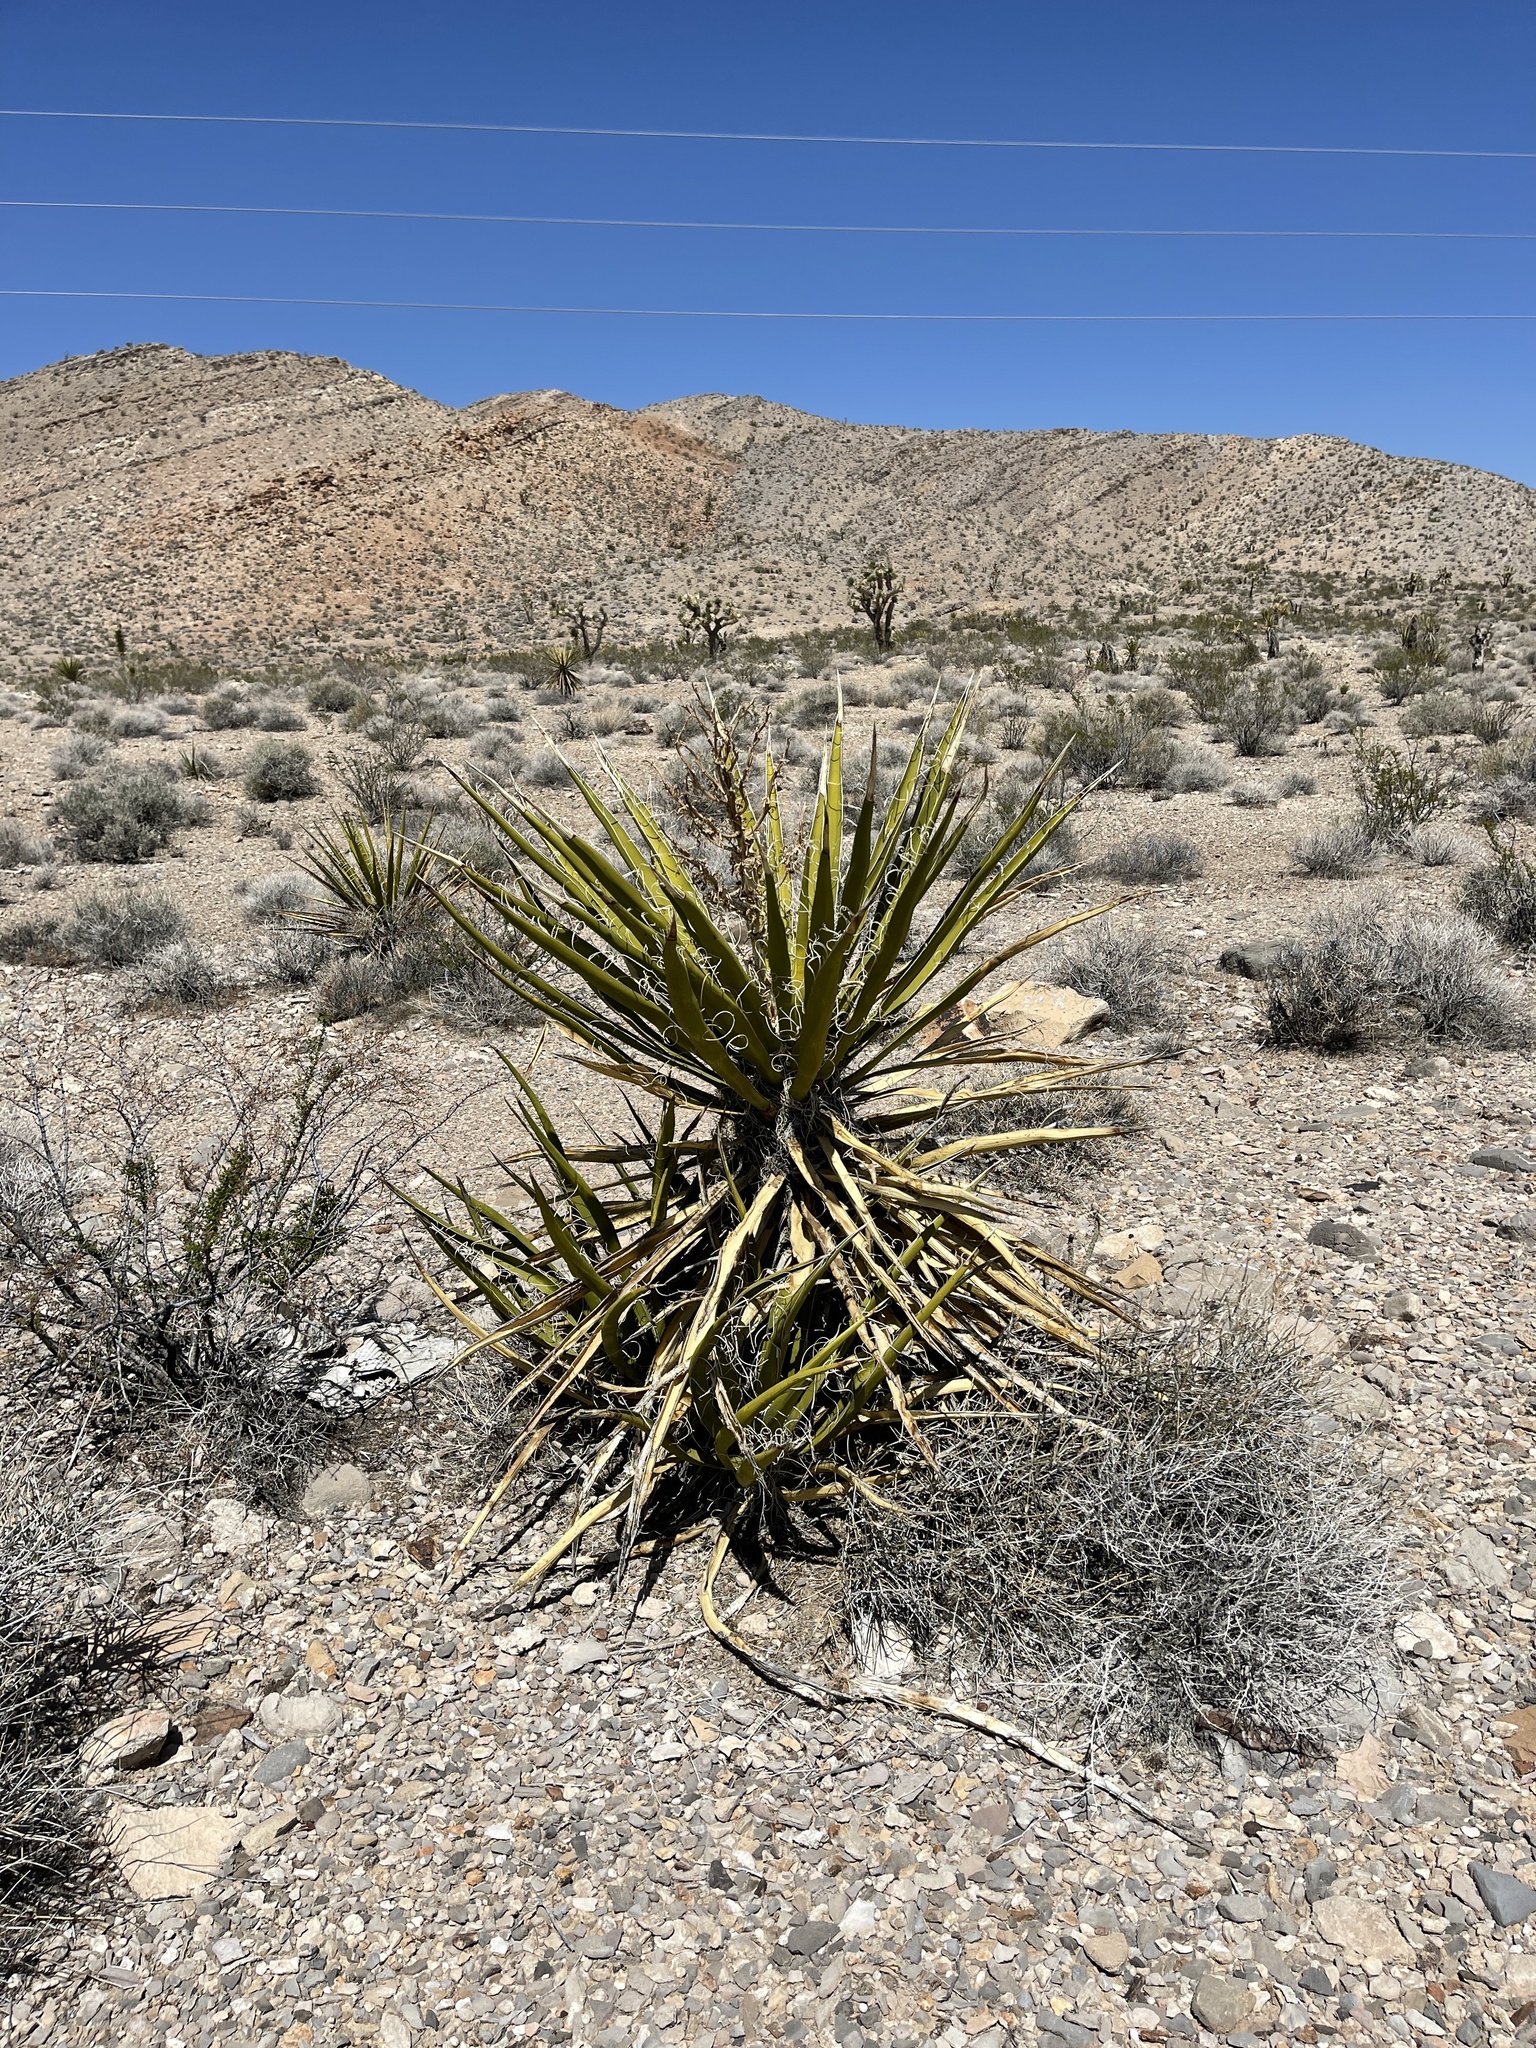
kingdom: Plantae
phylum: Tracheophyta
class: Liliopsida
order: Asparagales
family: Asparagaceae
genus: Yucca
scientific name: Yucca schidigera
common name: Mojave yucca
